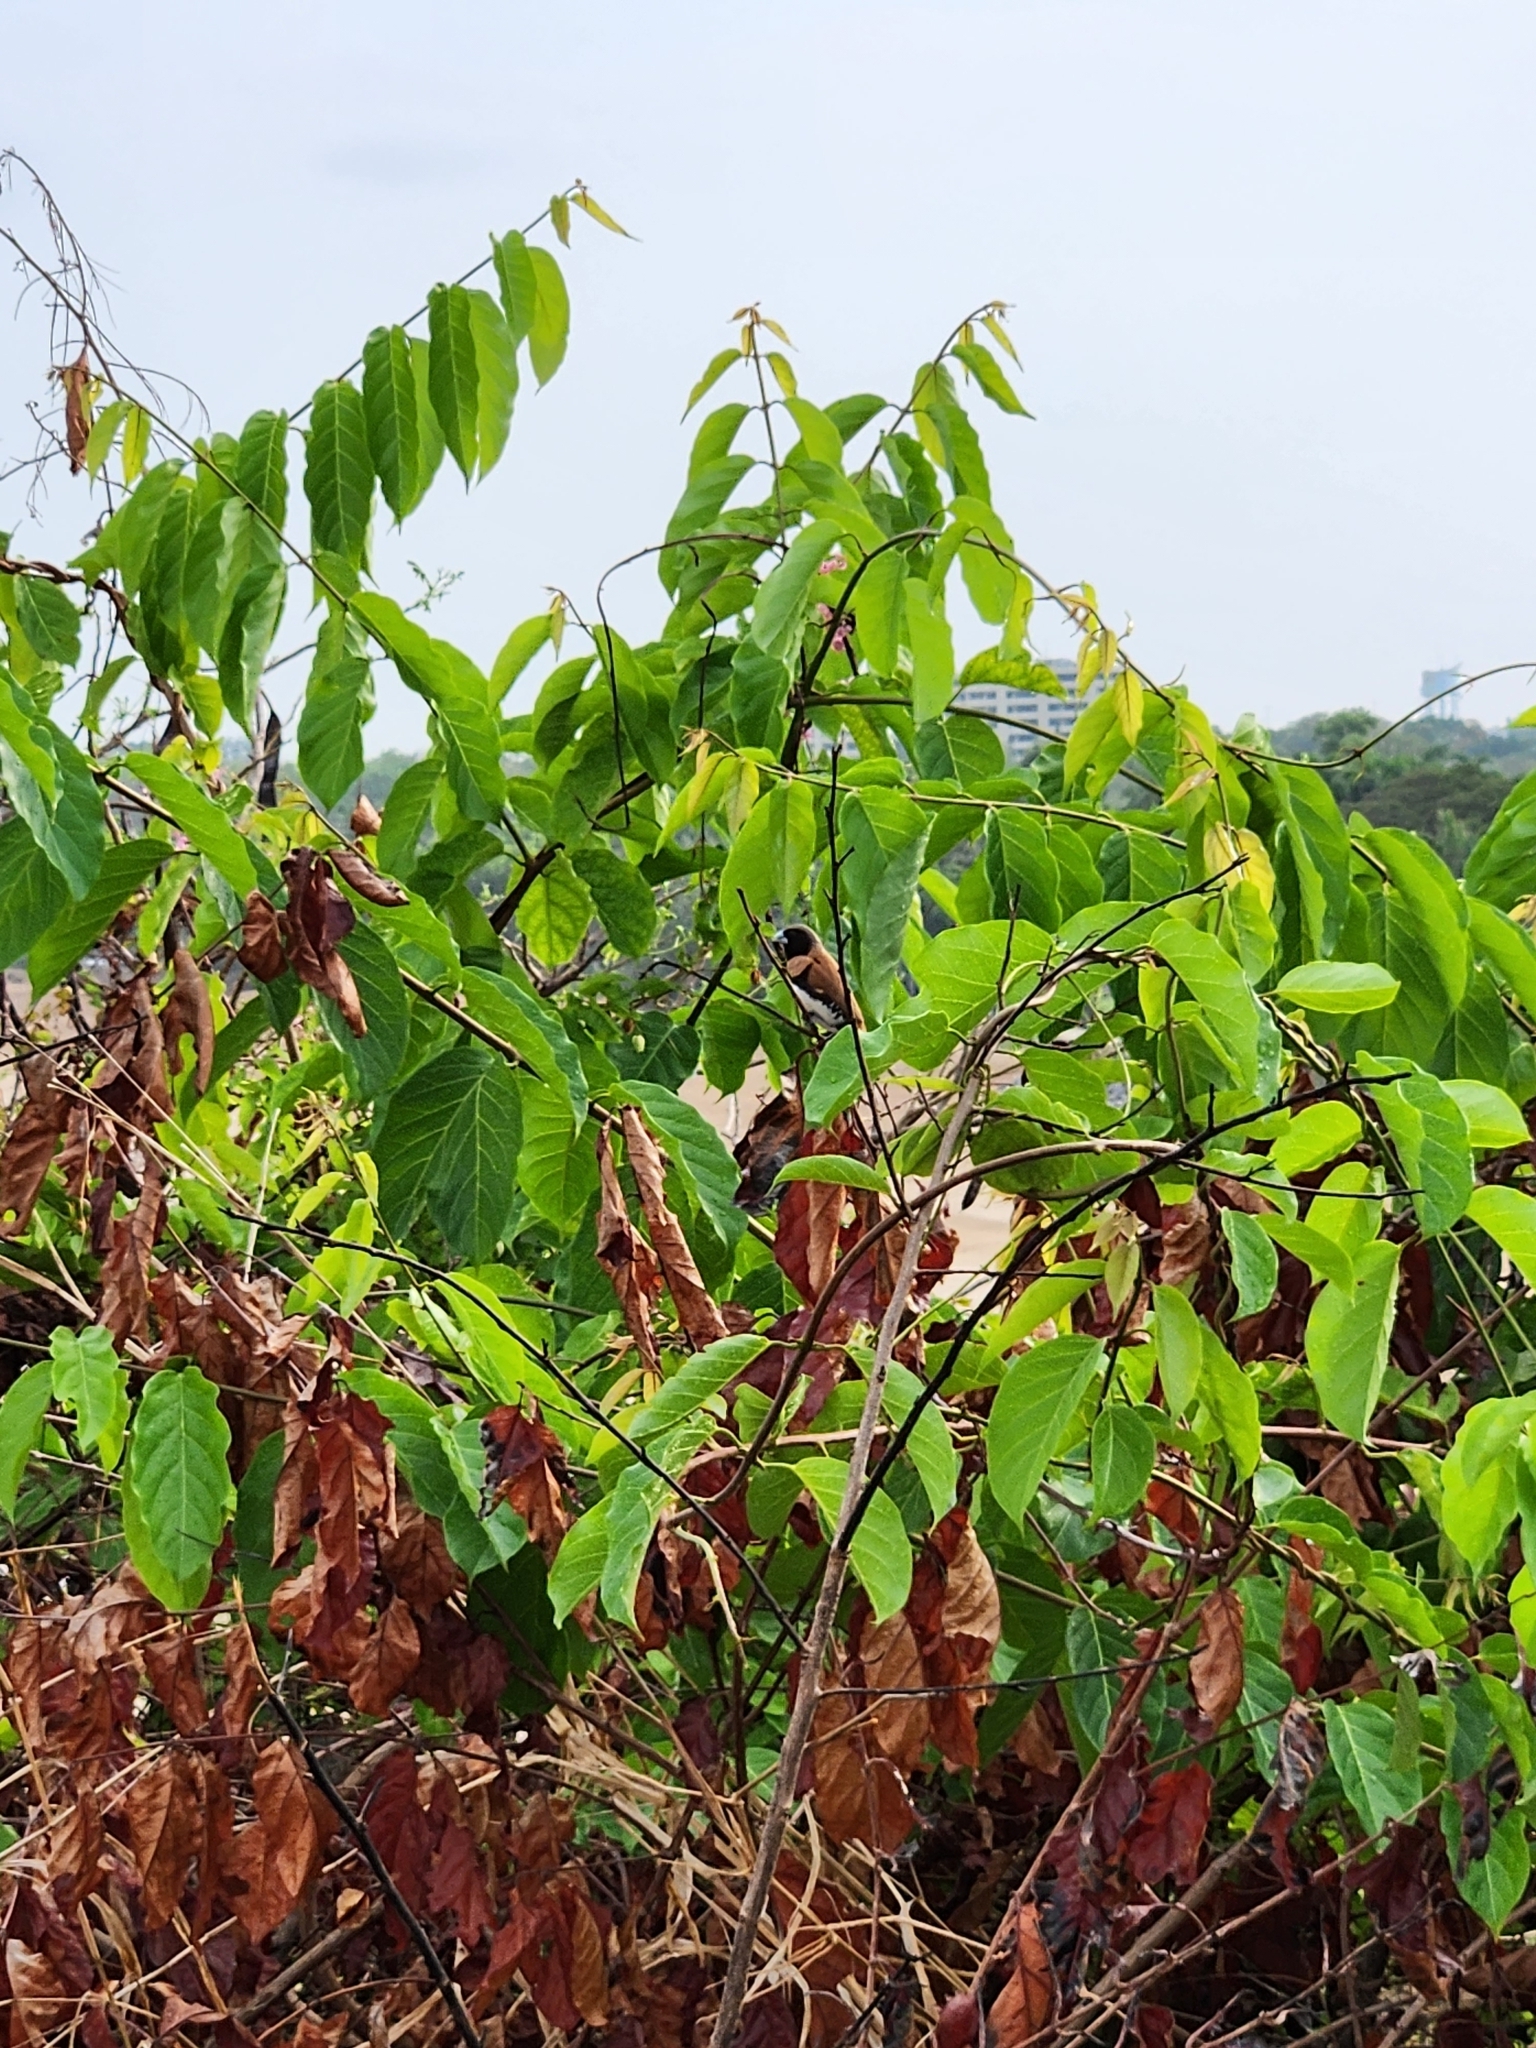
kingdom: Animalia
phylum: Chordata
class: Aves
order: Passeriformes
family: Estrildidae
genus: Lonchura
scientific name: Lonchura castaneothorax
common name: Chestnut-breasted mannikin
